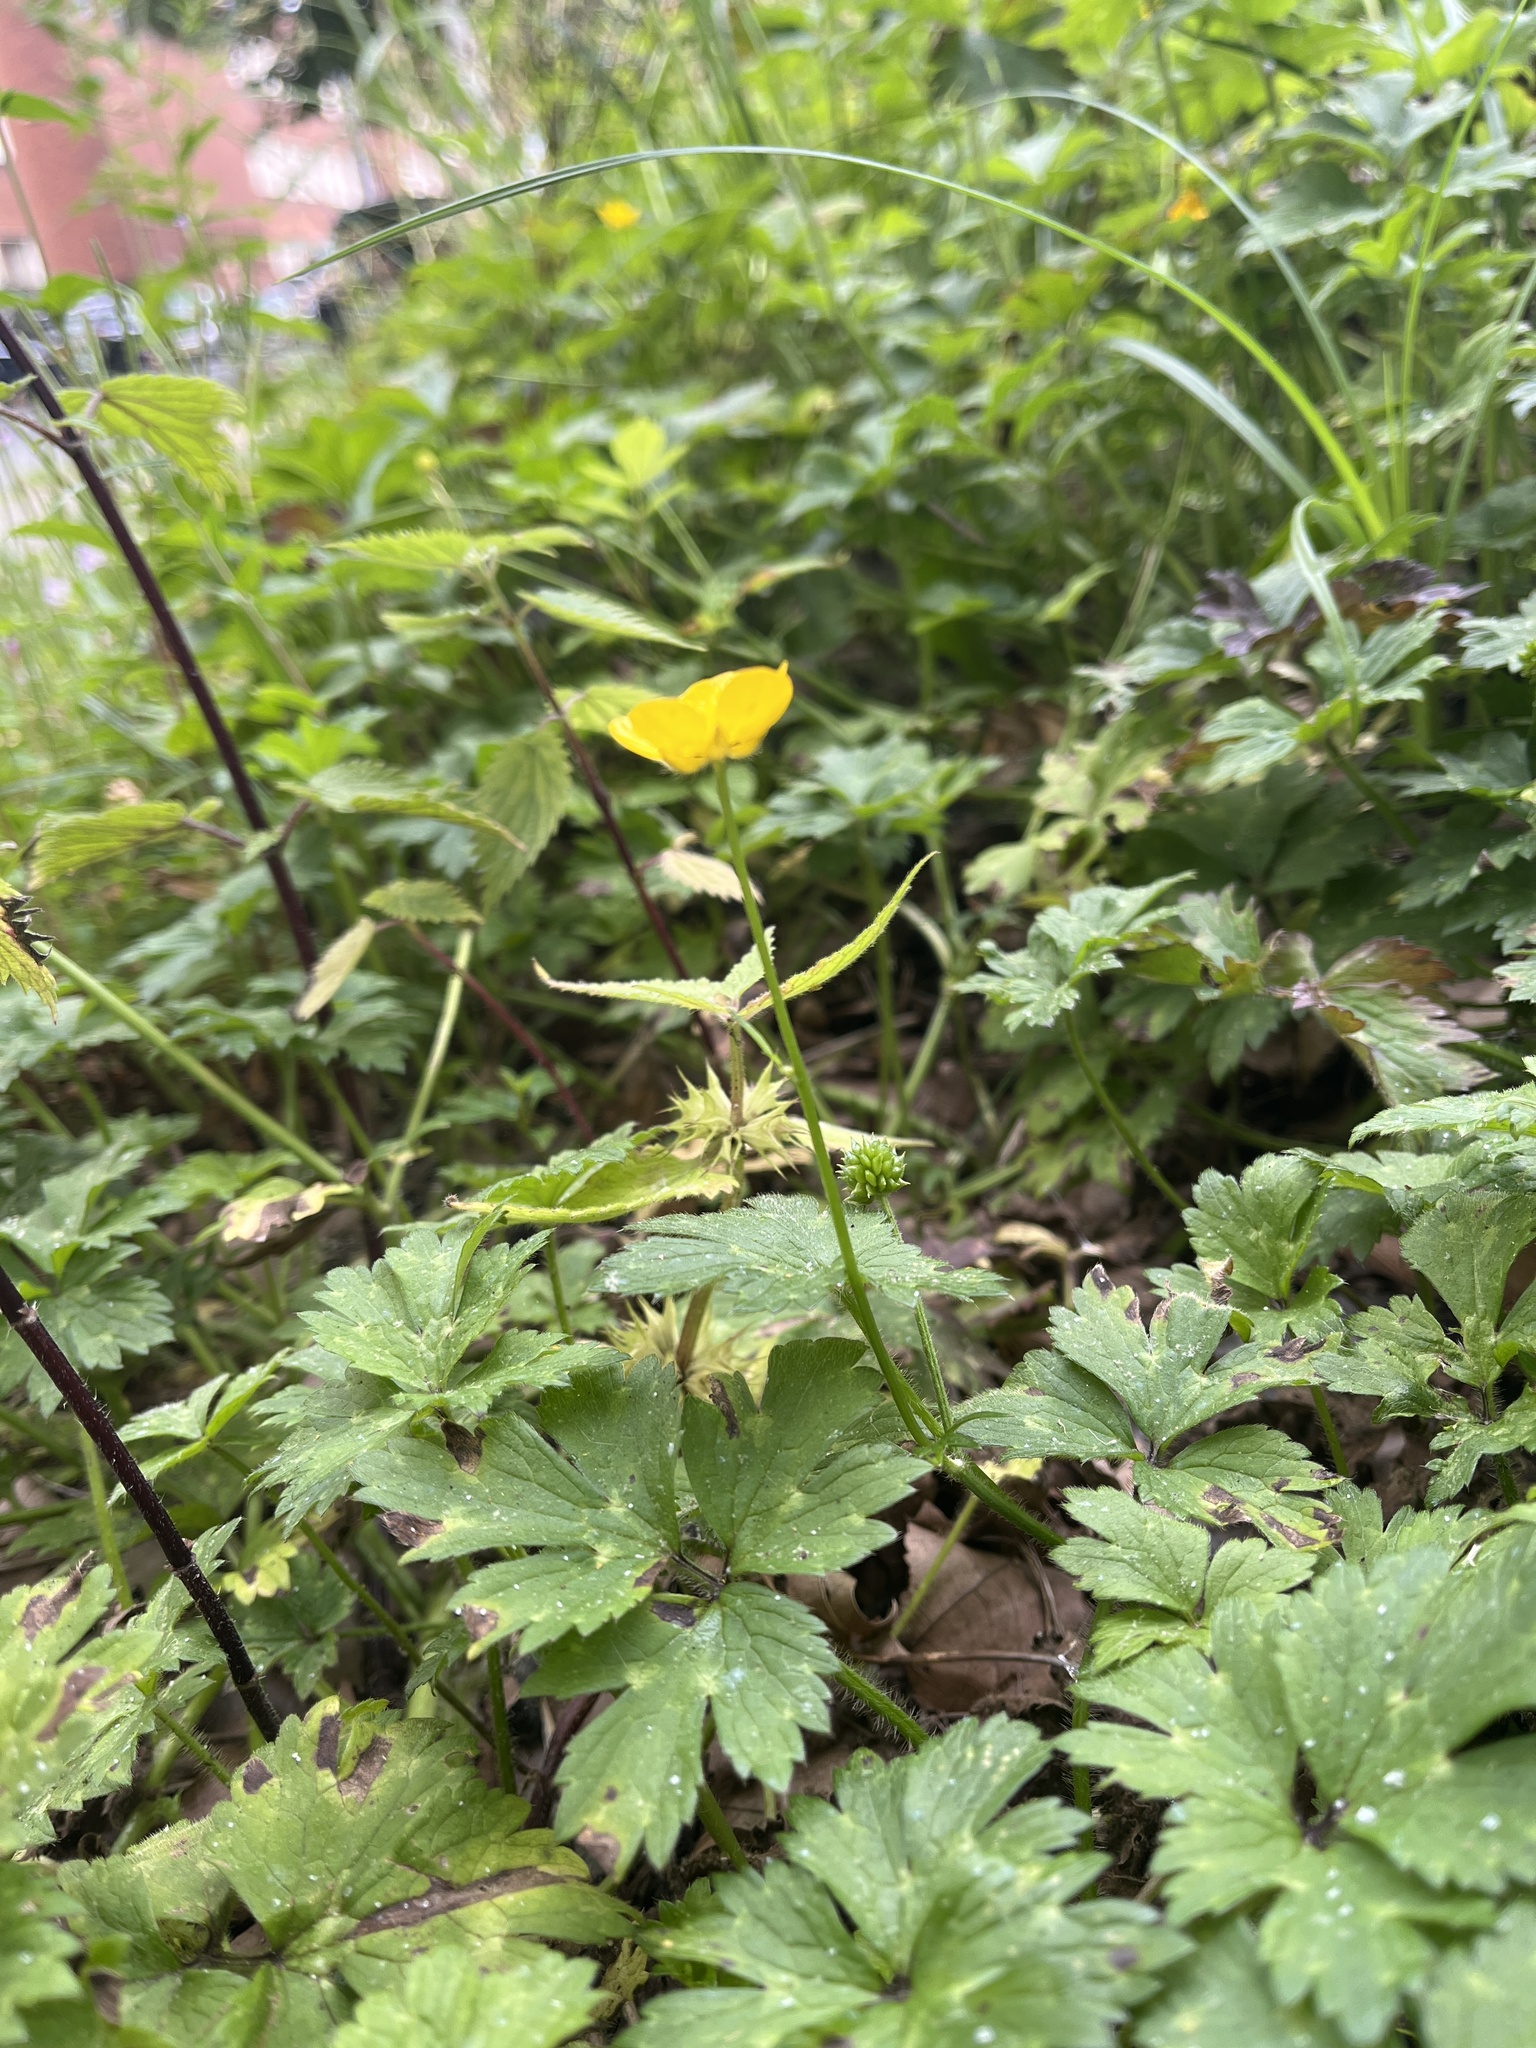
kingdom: Plantae
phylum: Tracheophyta
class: Magnoliopsida
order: Ranunculales
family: Ranunculaceae
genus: Ranunculus
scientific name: Ranunculus repens
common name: Creeping buttercup
